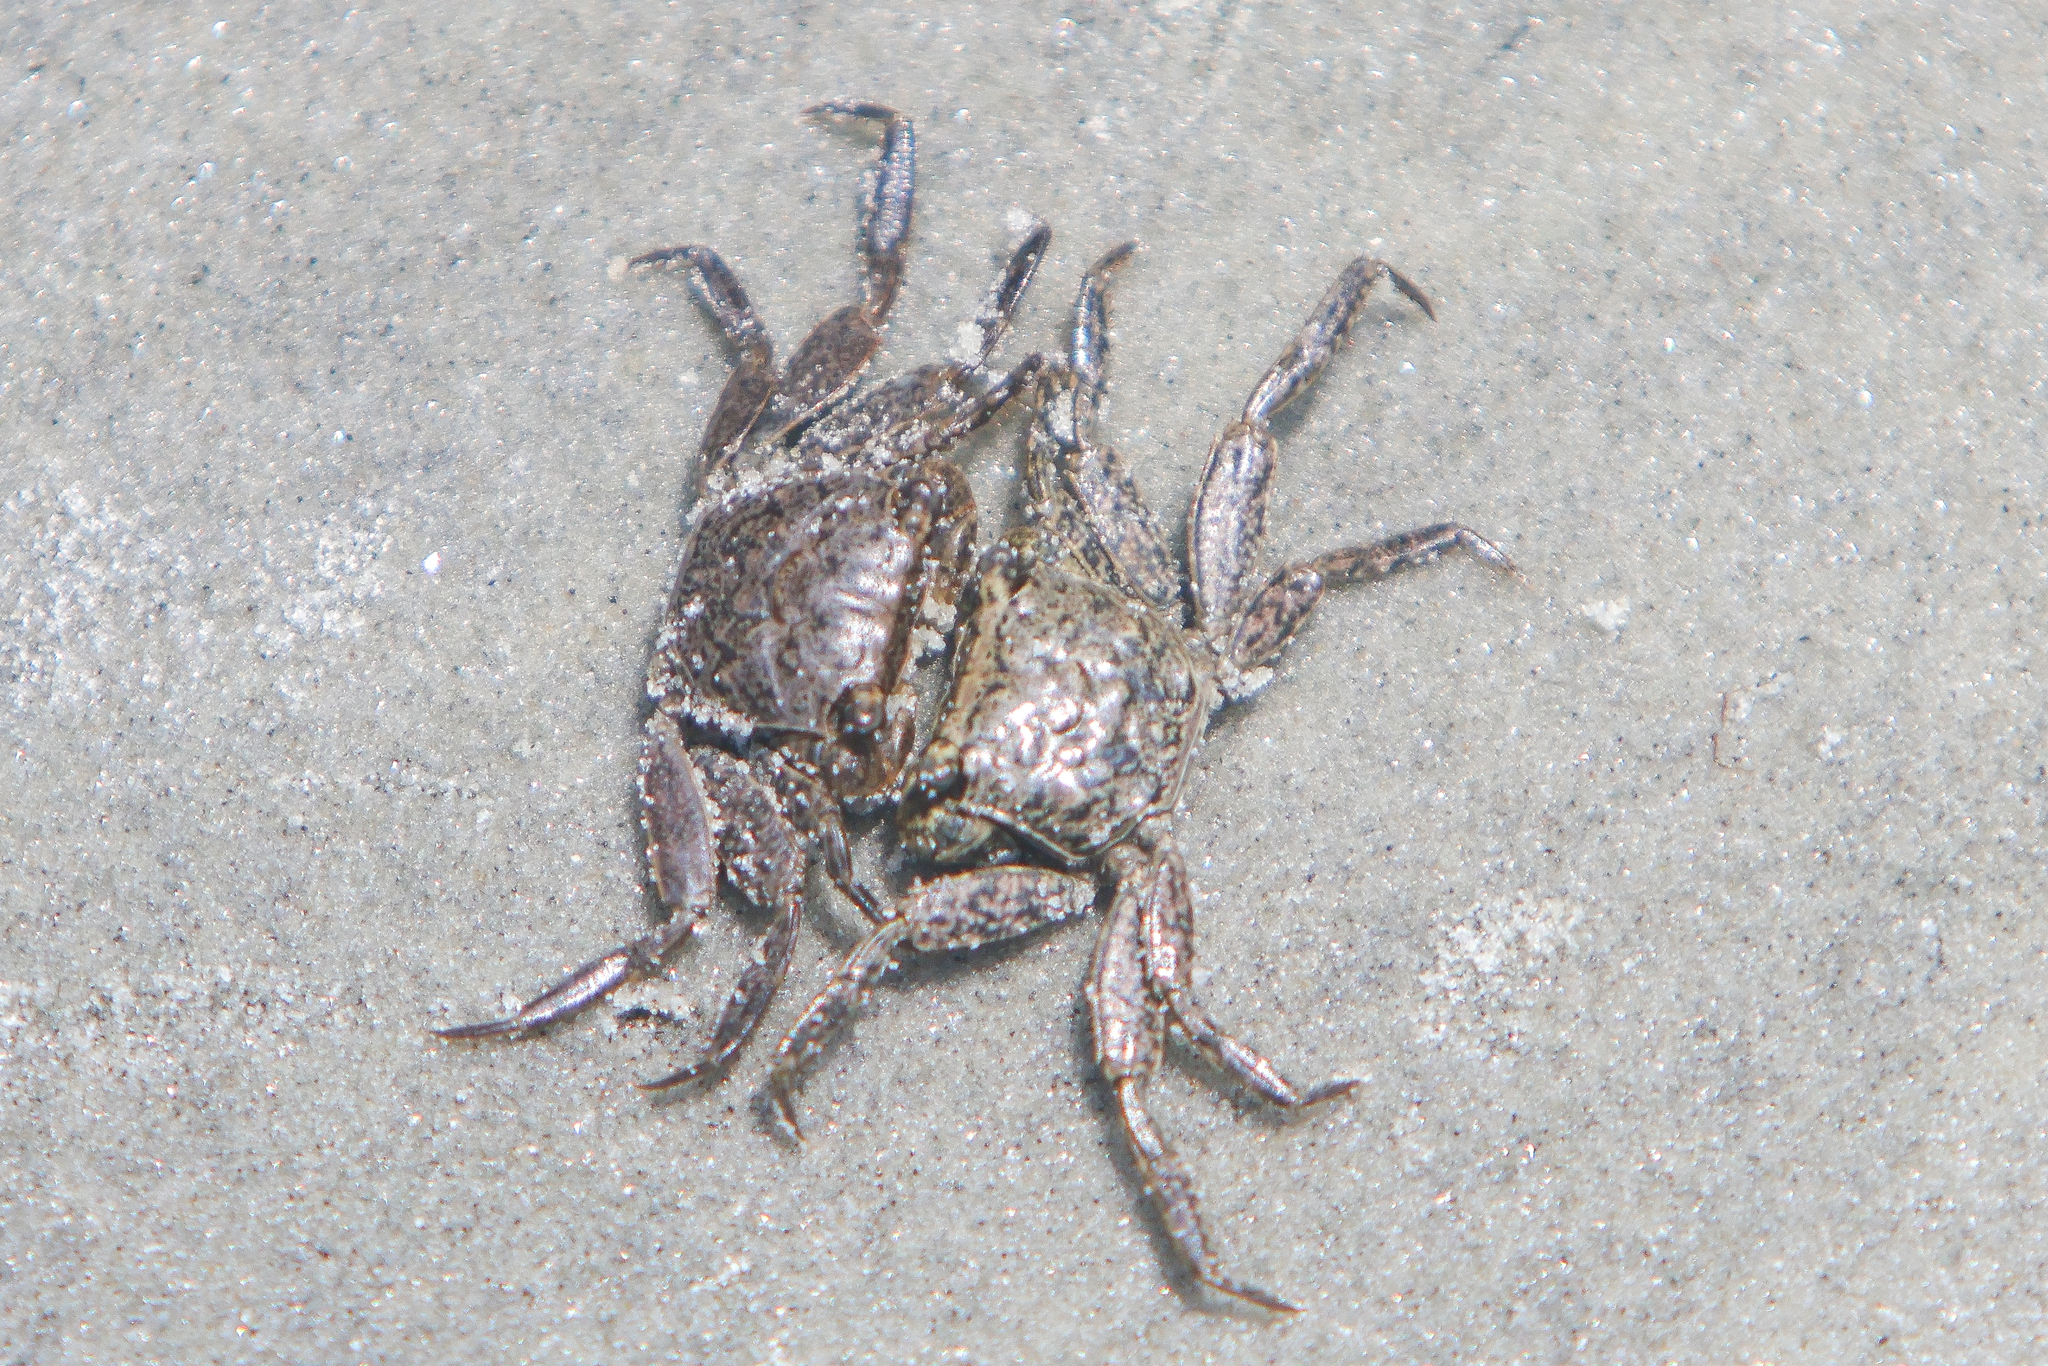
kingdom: Animalia
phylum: Arthropoda
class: Malacostraca
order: Decapoda
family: Sesarmidae
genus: Armases
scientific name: Armases cinereum
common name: Squareback marsh crab
